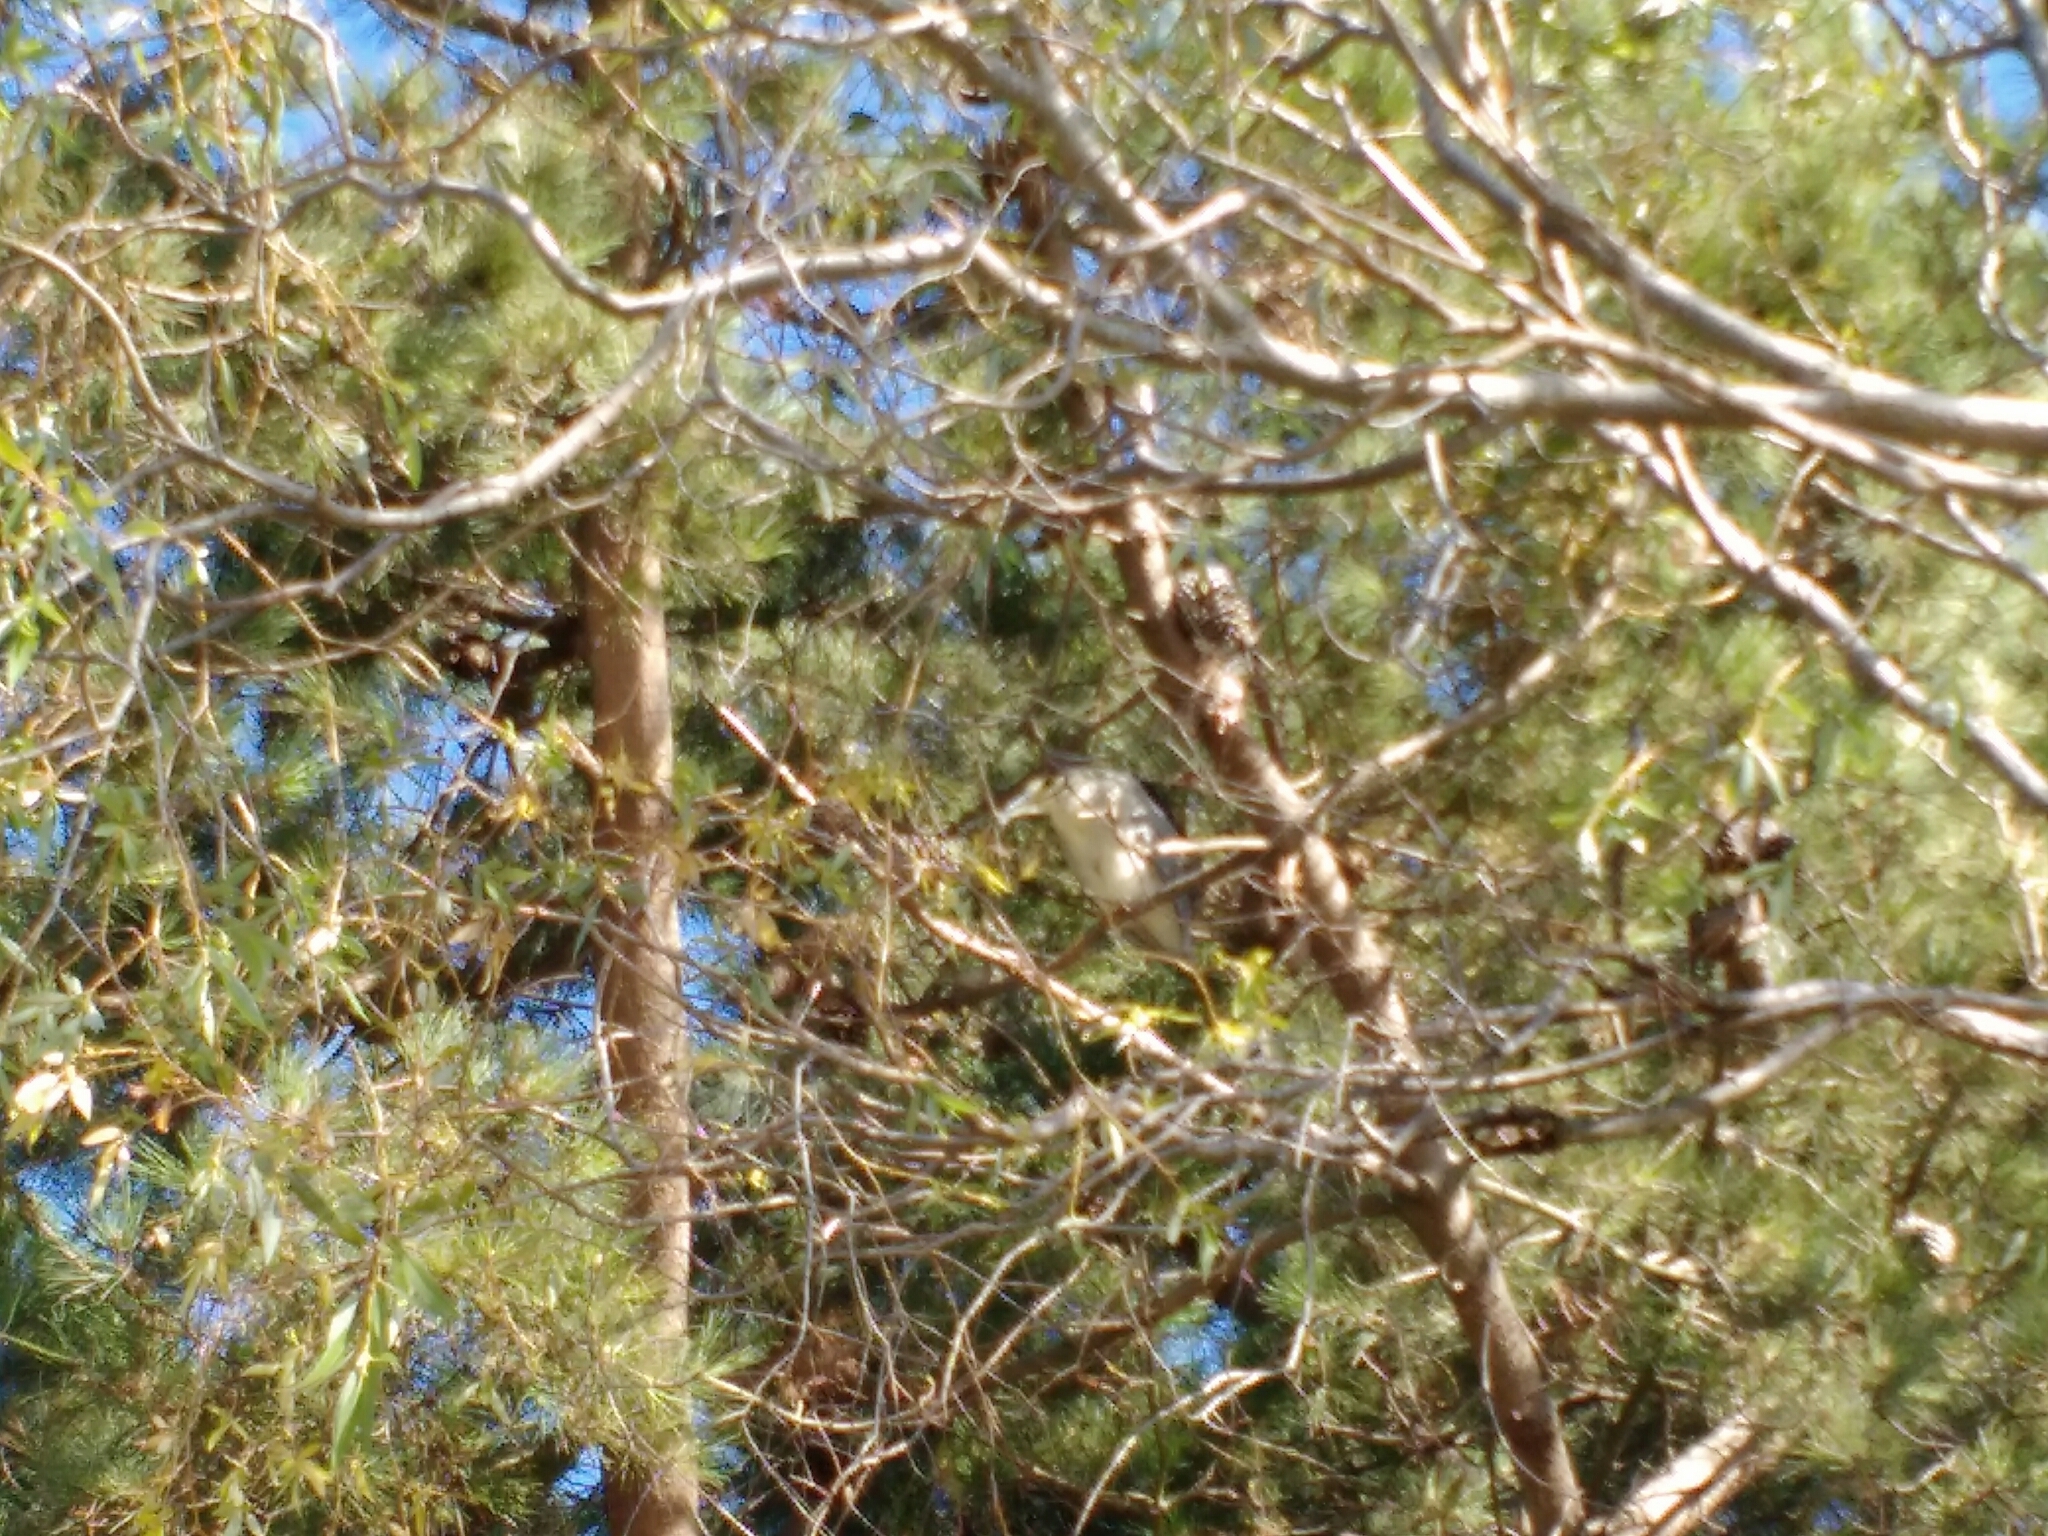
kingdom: Animalia
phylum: Chordata
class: Aves
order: Pelecaniformes
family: Ardeidae
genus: Nycticorax
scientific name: Nycticorax nycticorax
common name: Black-crowned night heron
